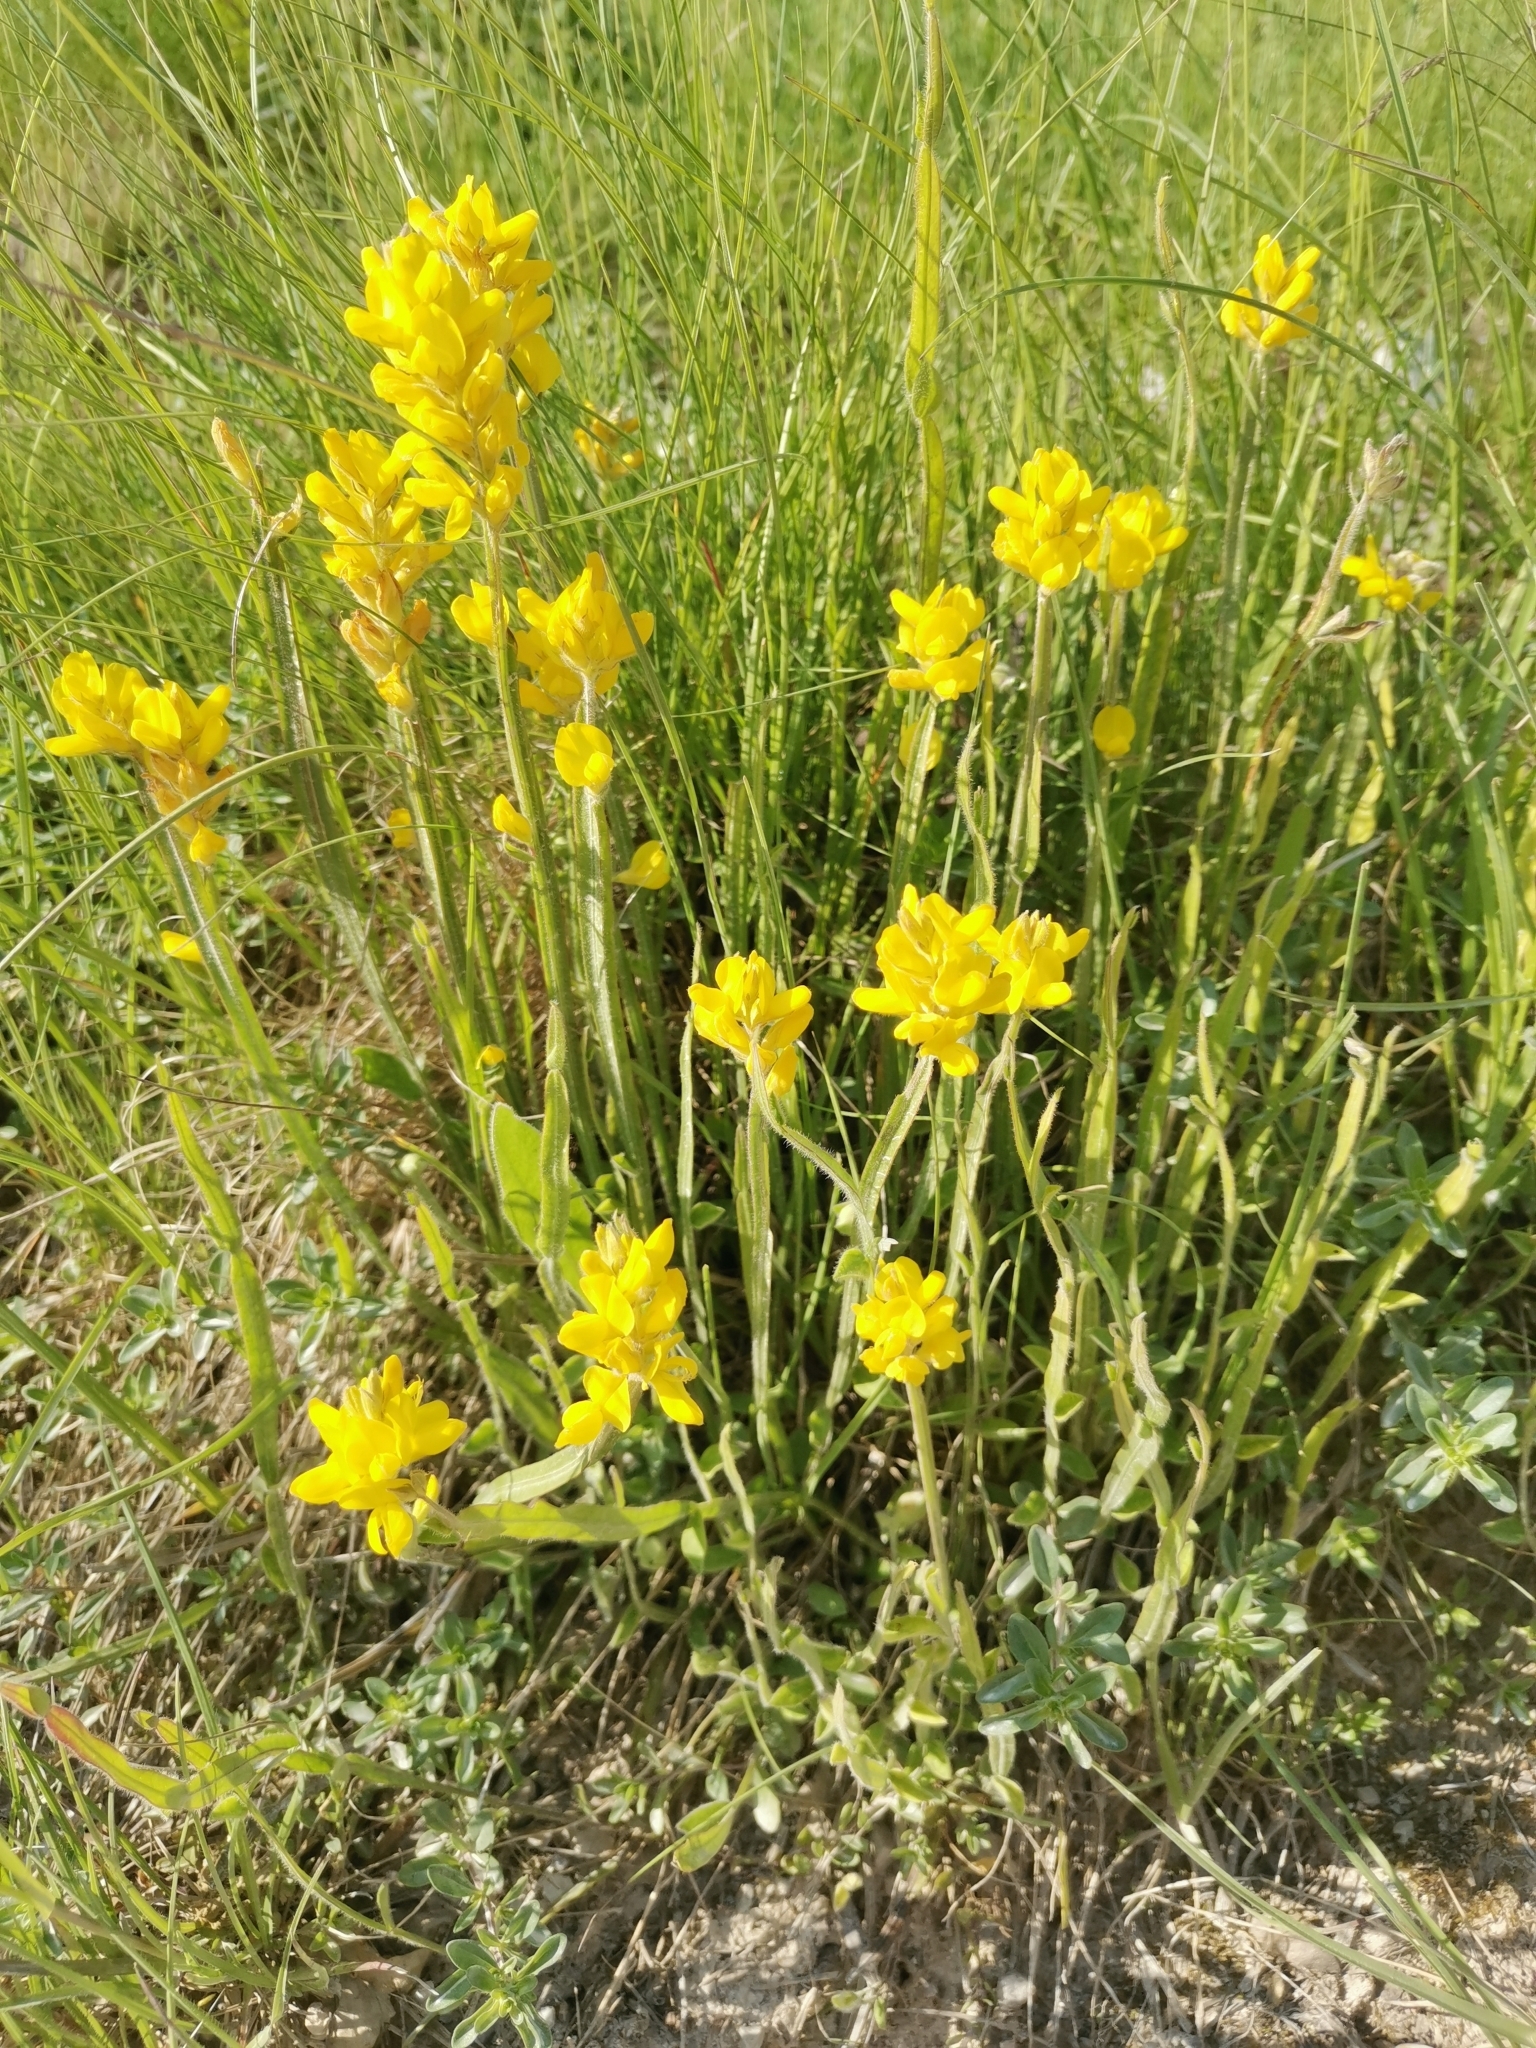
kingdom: Plantae
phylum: Tracheophyta
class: Magnoliopsida
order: Fabales
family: Fabaceae
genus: Genista
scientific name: Genista sagittalis
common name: Winged greenweed
